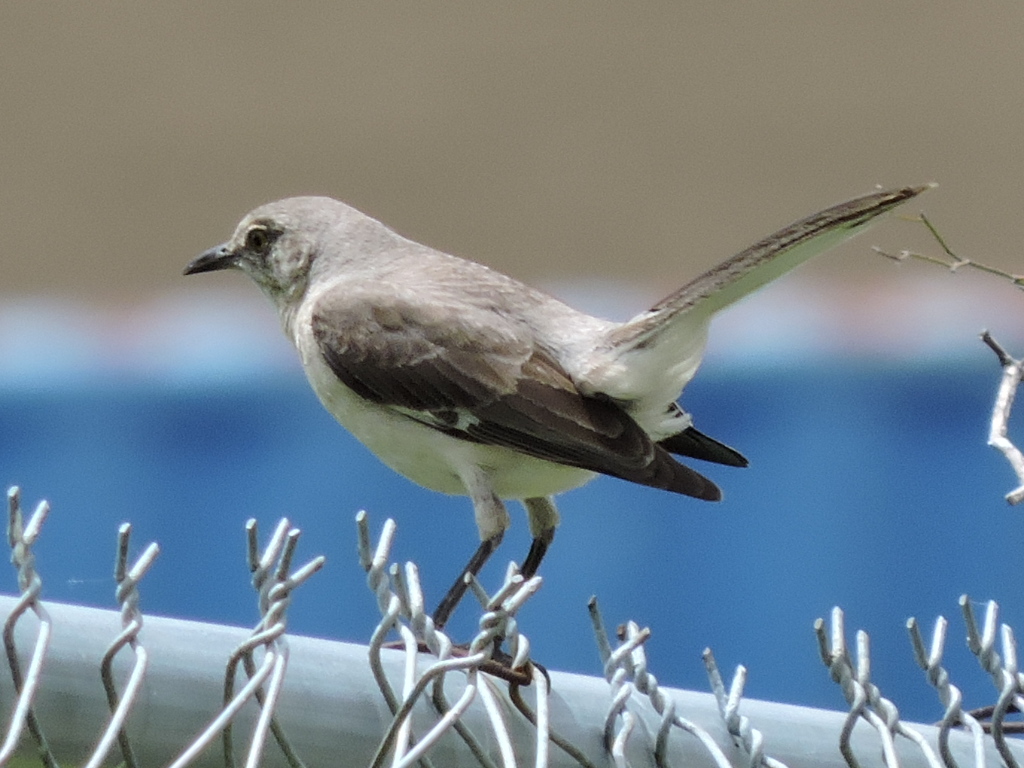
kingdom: Animalia
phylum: Chordata
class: Aves
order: Passeriformes
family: Mimidae
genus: Mimus
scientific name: Mimus polyglottos
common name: Northern mockingbird
